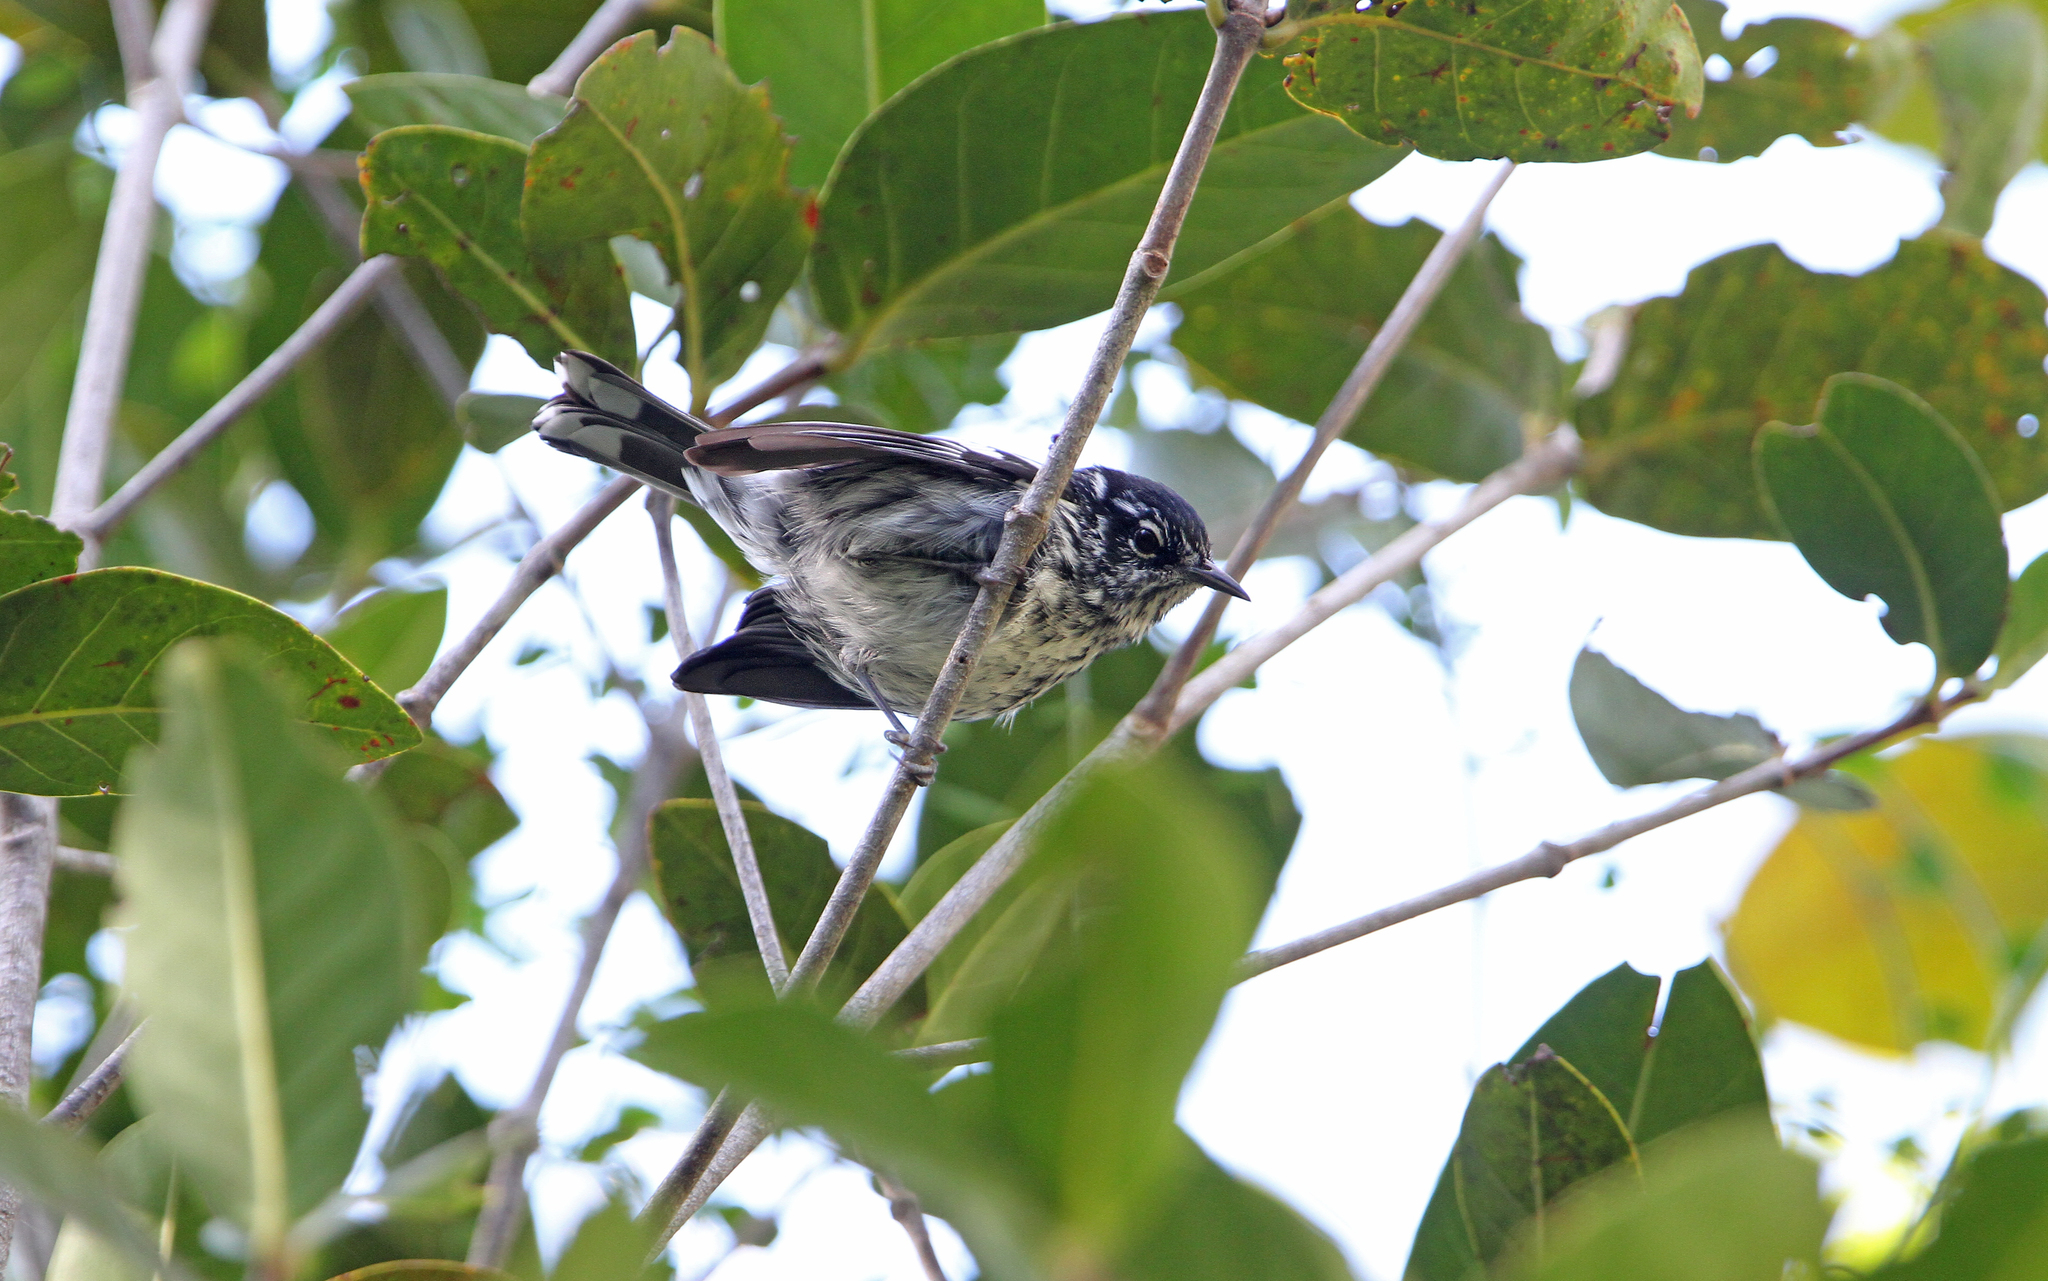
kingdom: Animalia
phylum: Chordata
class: Aves
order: Passeriformes
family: Parulidae
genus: Setophaga
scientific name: Setophaga angelae
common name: Elfin woods warbler
